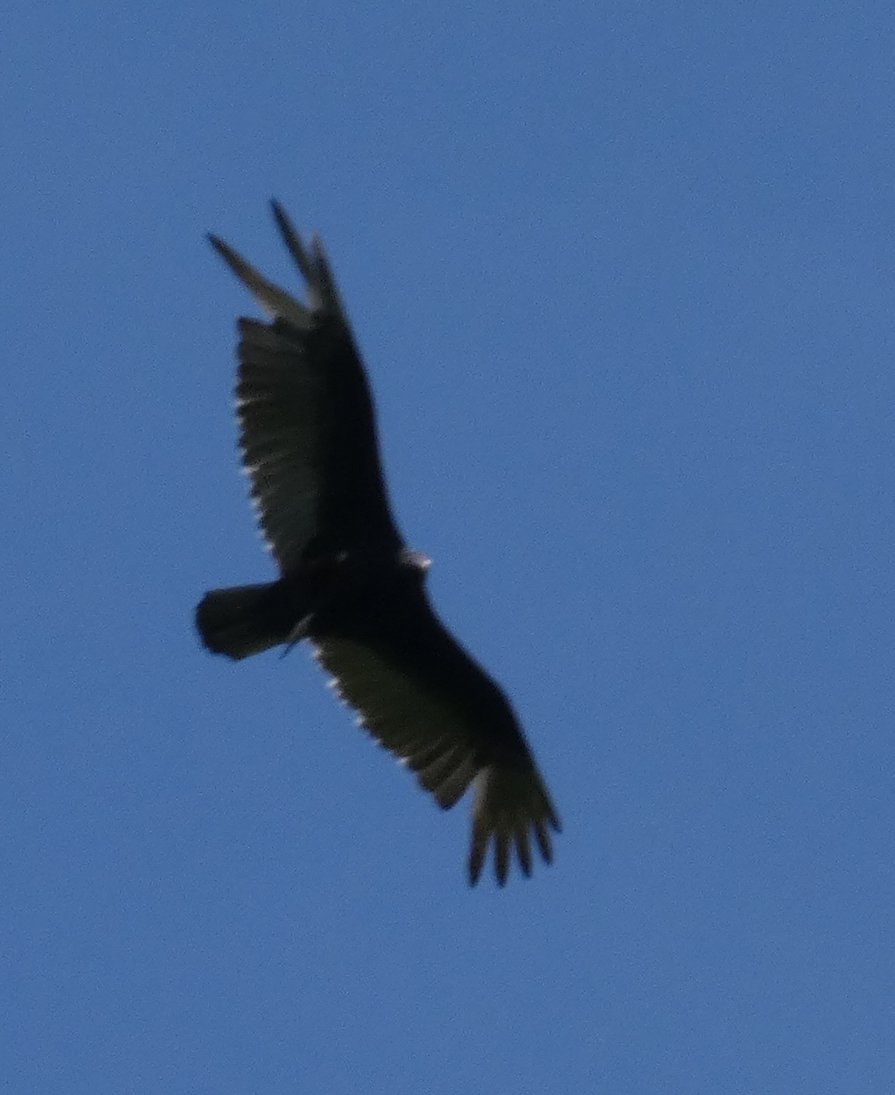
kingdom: Animalia
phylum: Chordata
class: Aves
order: Accipitriformes
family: Cathartidae
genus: Cathartes
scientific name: Cathartes aura
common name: Turkey vulture
